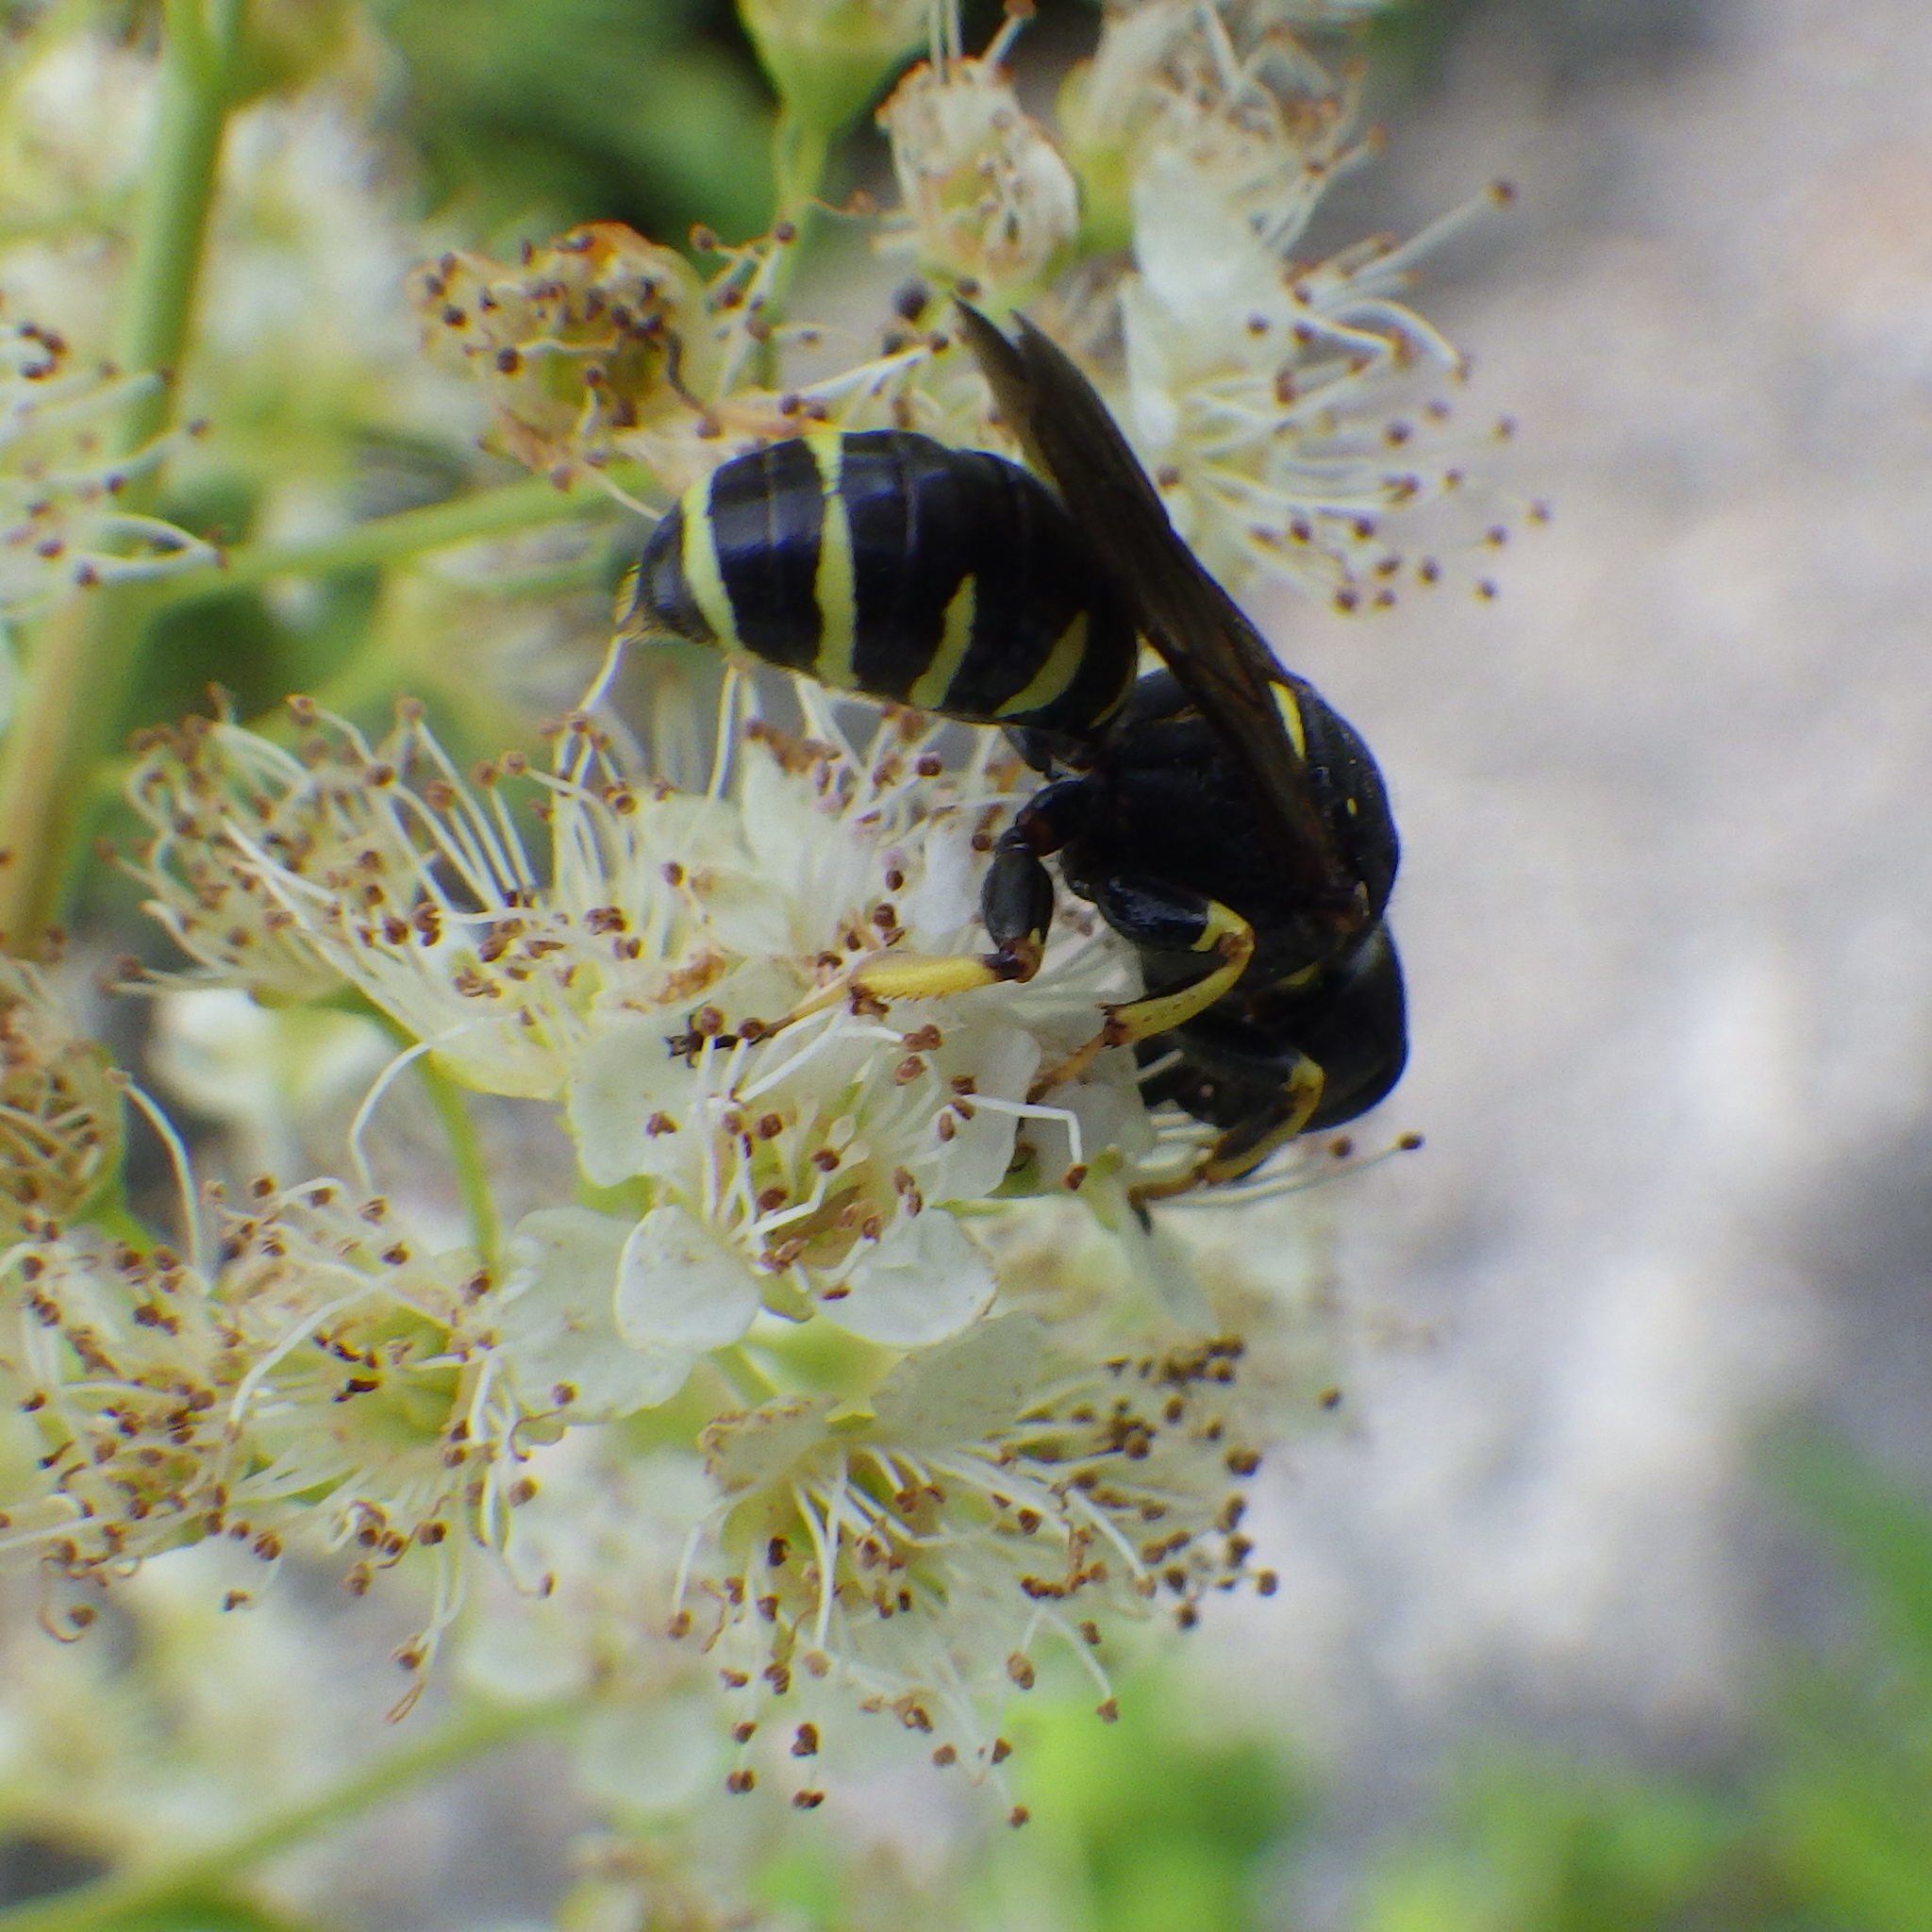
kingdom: Animalia
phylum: Arthropoda
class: Insecta
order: Hymenoptera
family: Crabronidae
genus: Ectemnius
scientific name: Ectemnius arcuatus
